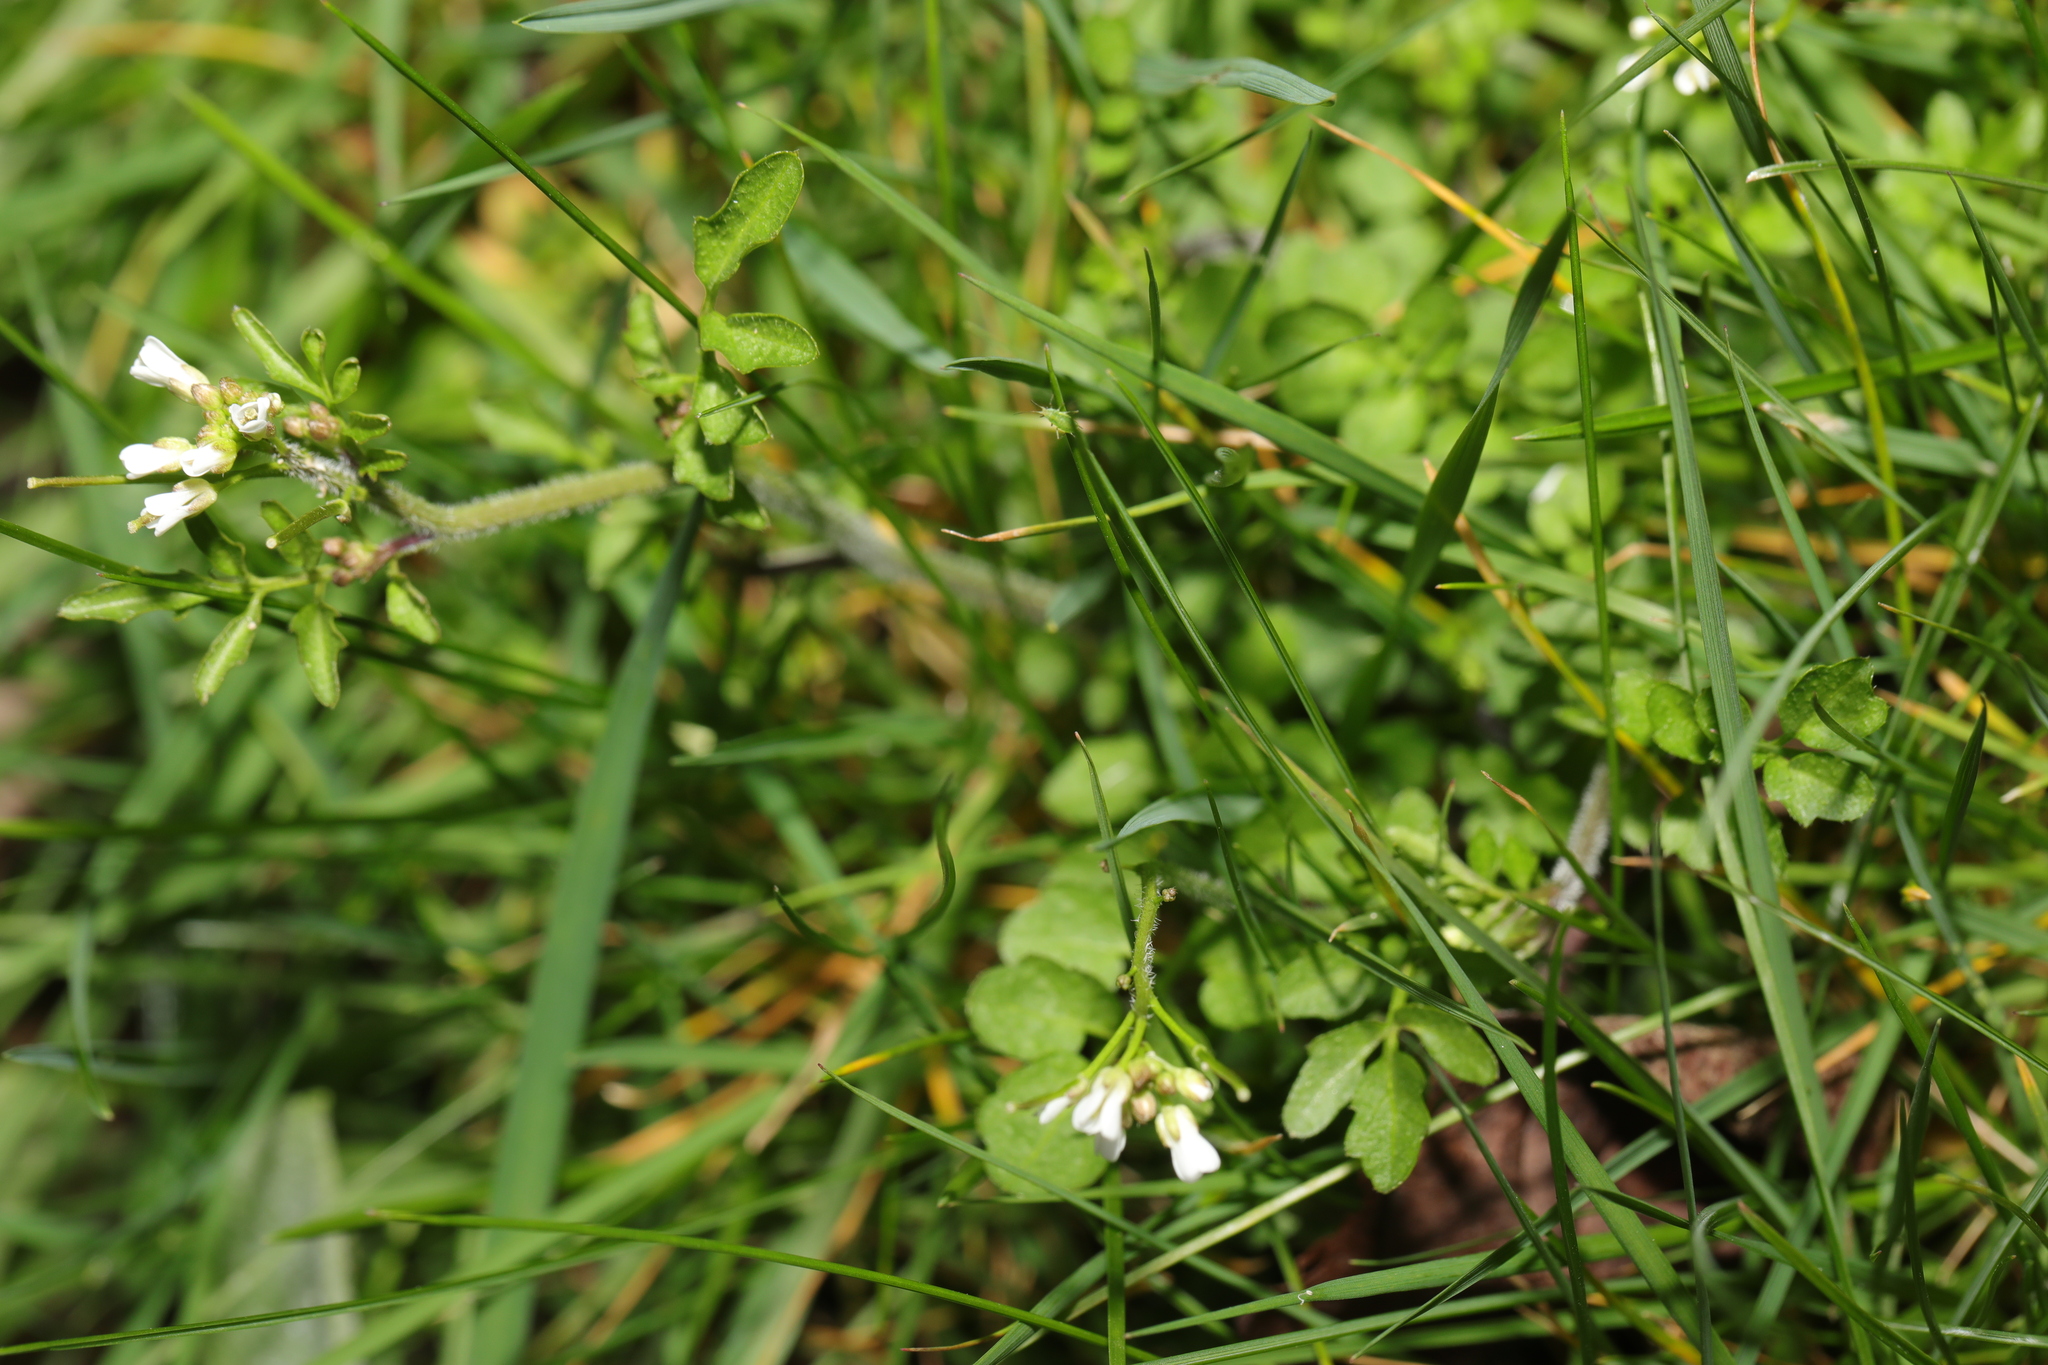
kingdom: Plantae
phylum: Tracheophyta
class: Magnoliopsida
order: Brassicales
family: Brassicaceae
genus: Cardamine
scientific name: Cardamine flexuosa
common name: Woodland bittercress
